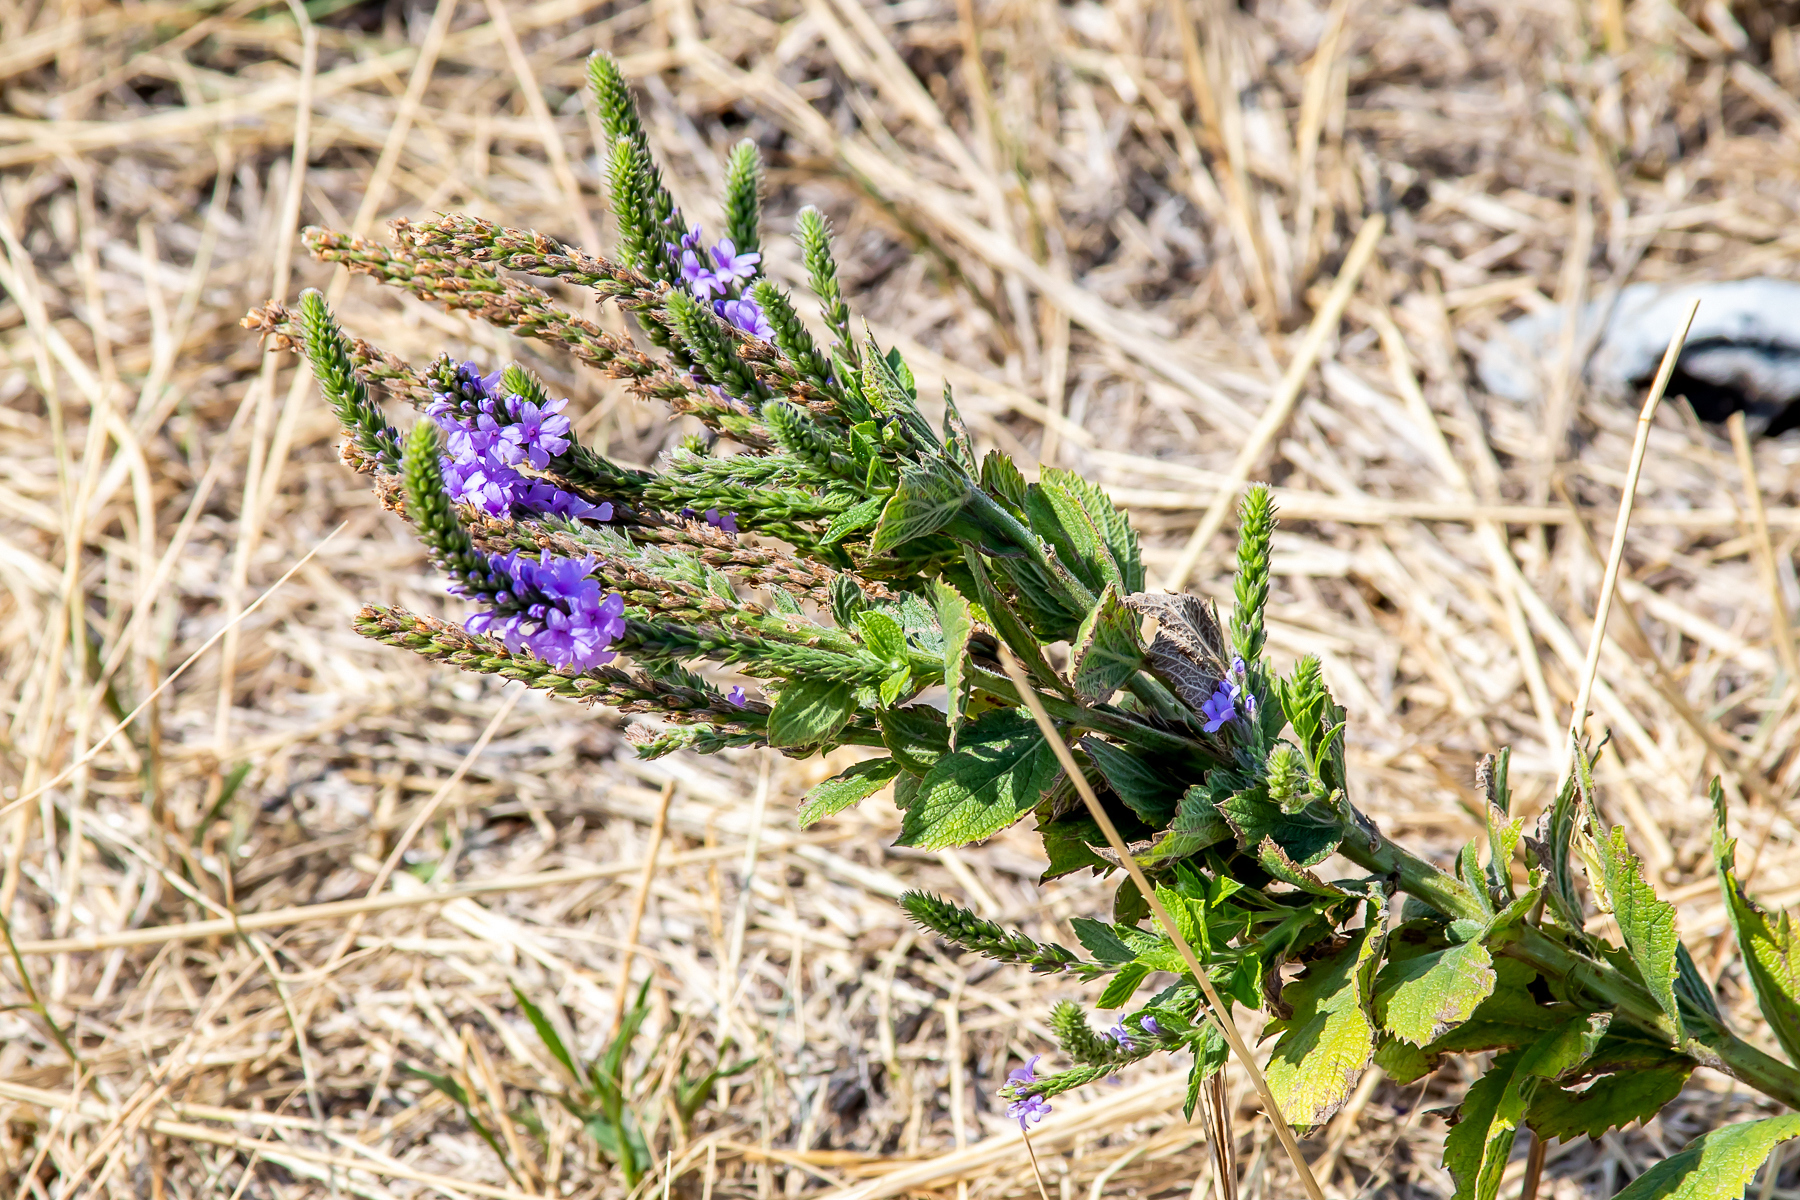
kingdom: Plantae
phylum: Tracheophyta
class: Magnoliopsida
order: Lamiales
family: Verbenaceae
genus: Verbena
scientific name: Verbena stricta
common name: Hoary vervain
